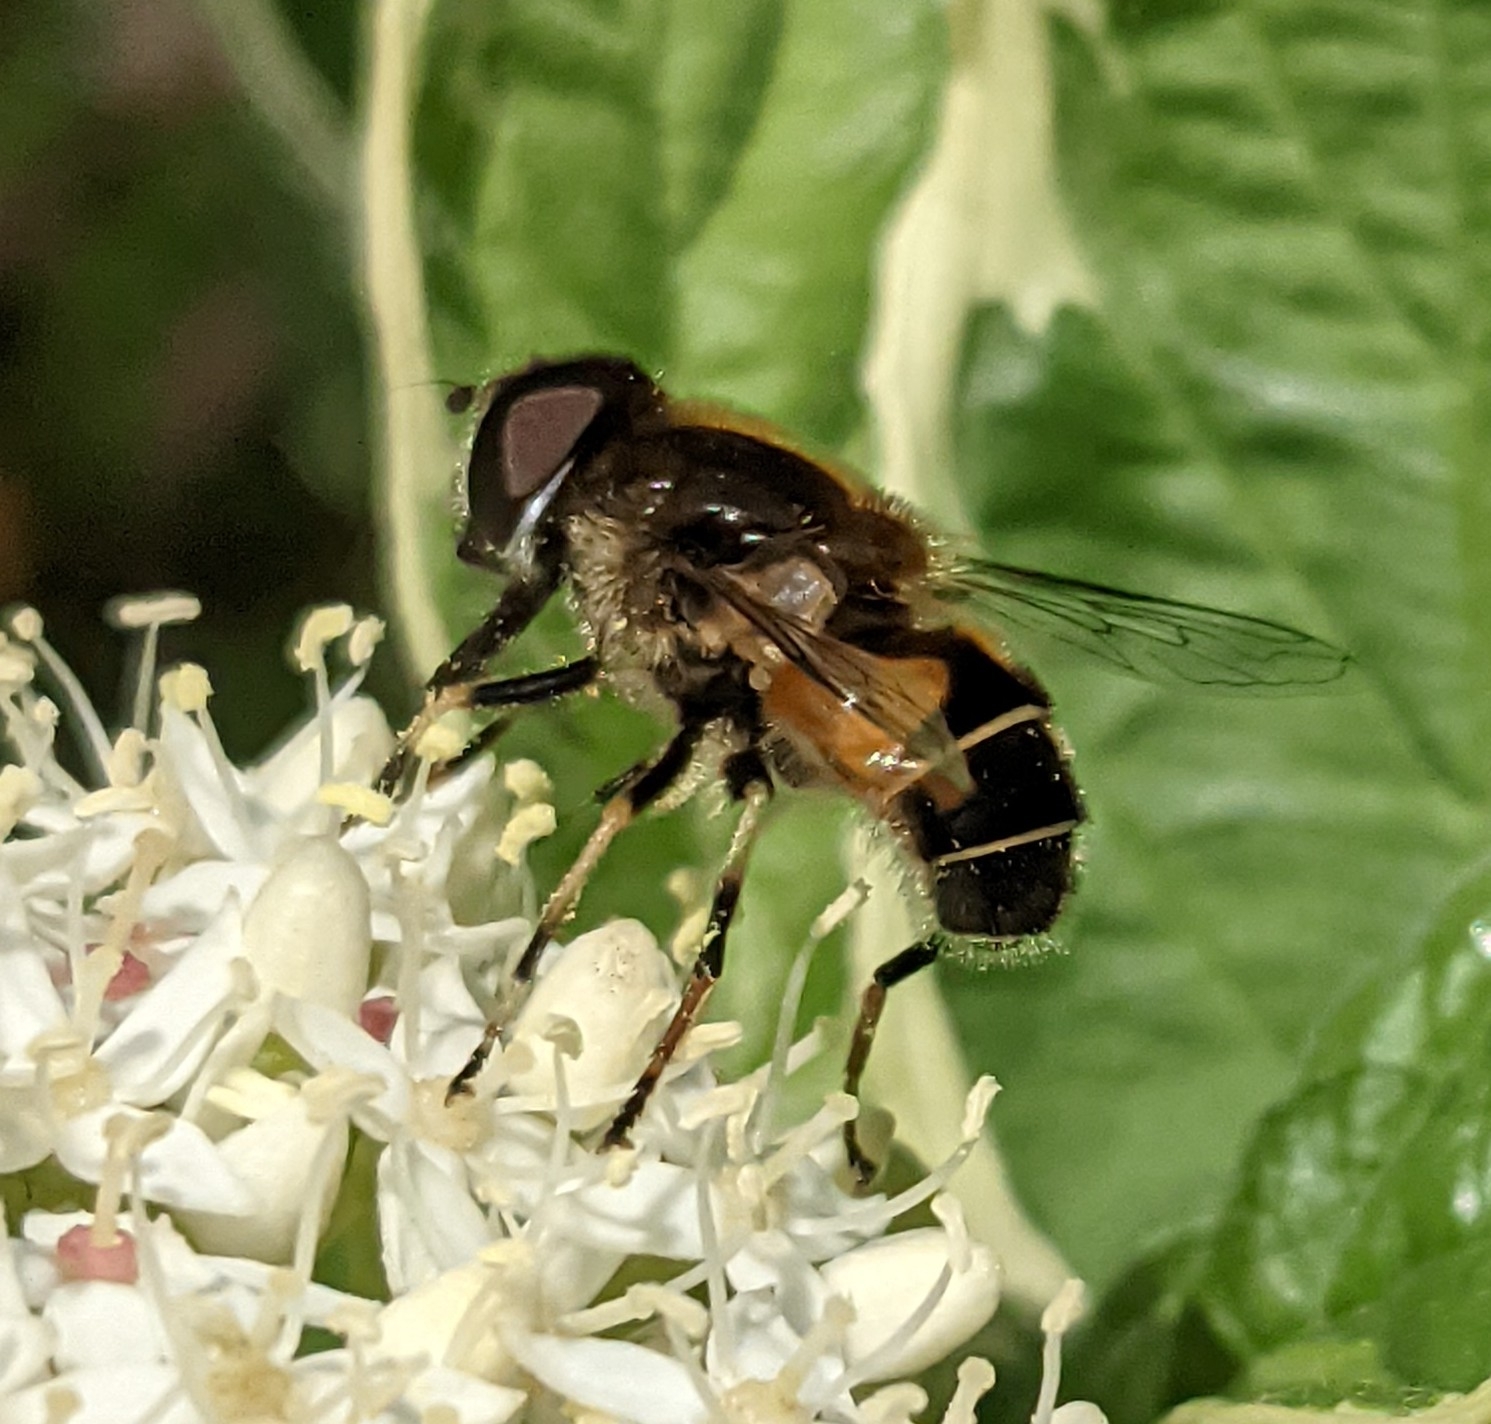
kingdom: Animalia
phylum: Arthropoda
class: Insecta
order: Diptera
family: Syrphidae
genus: Eristalis
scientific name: Eristalis obscura
